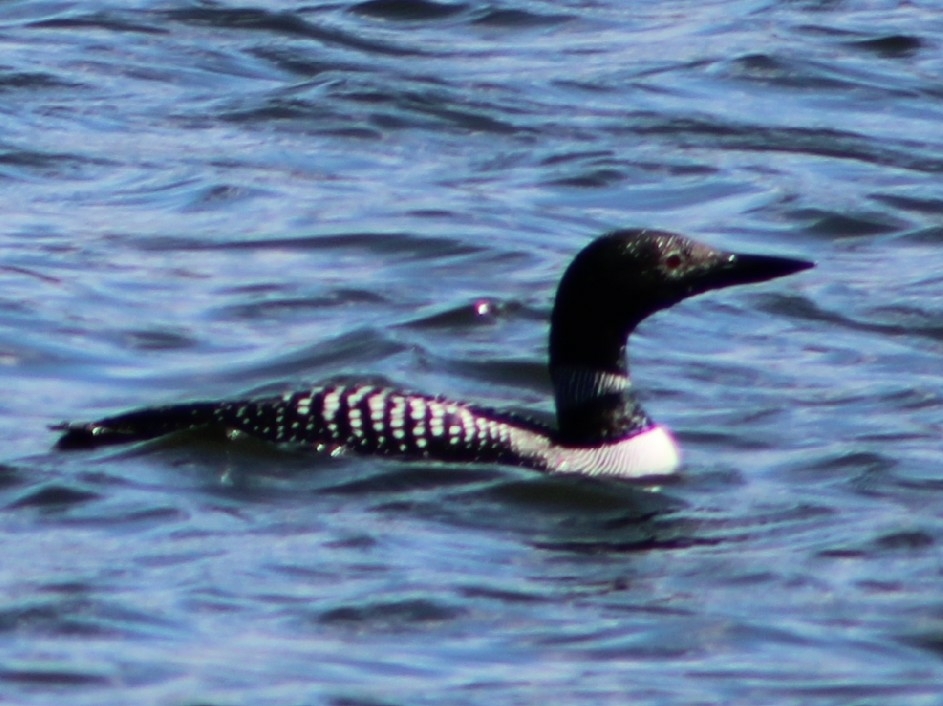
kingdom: Animalia
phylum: Chordata
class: Aves
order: Gaviiformes
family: Gaviidae
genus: Gavia
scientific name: Gavia immer
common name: Common loon
